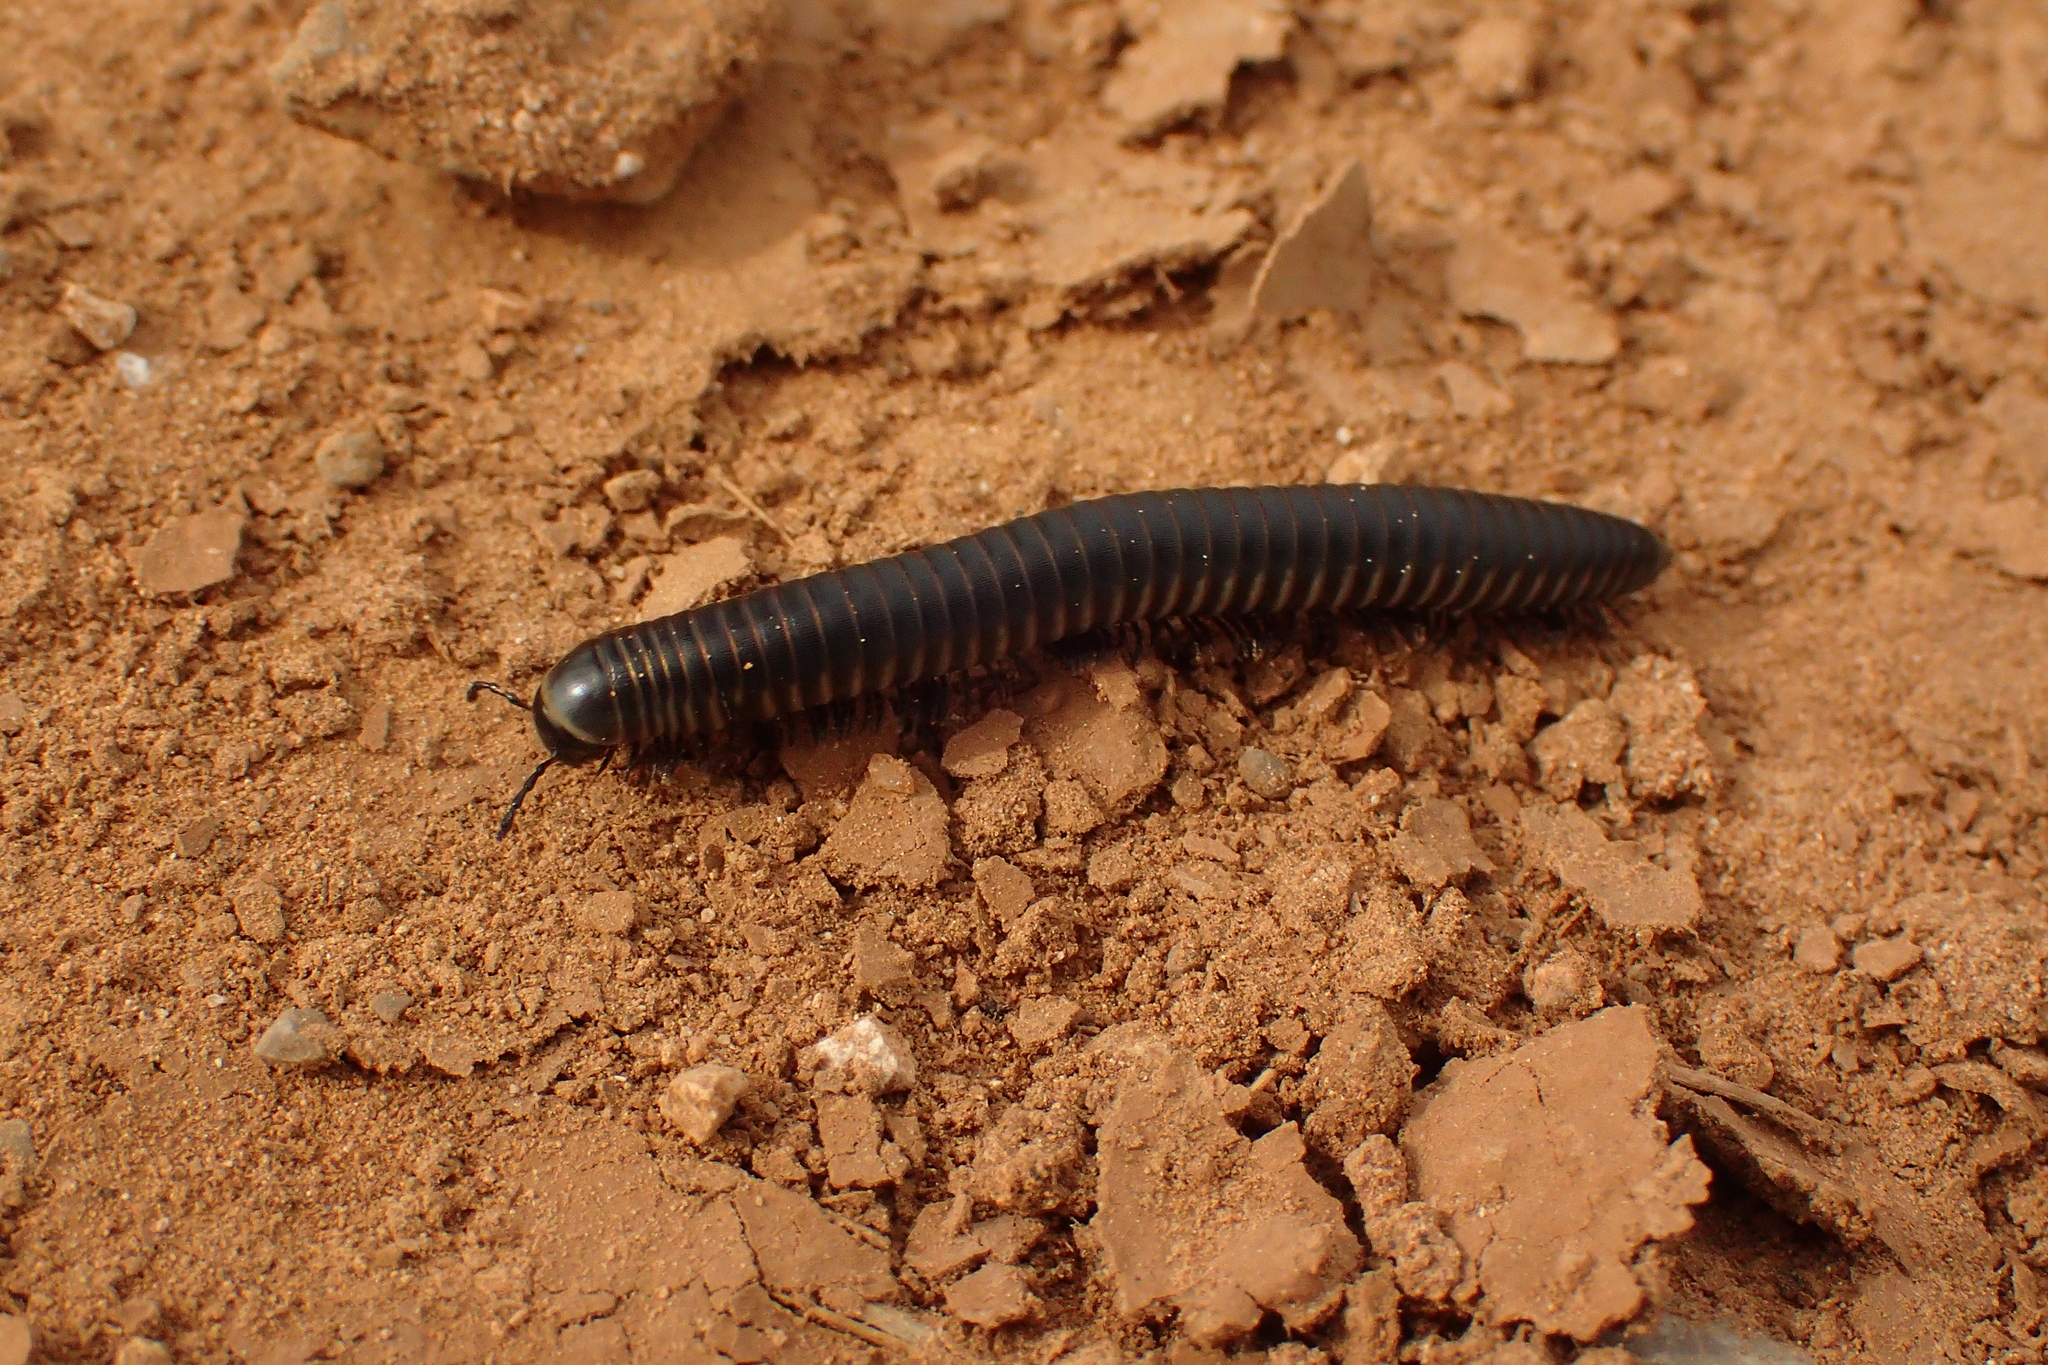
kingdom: Animalia
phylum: Arthropoda
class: Diplopoda
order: Julida
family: Julidae
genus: Ommatoiulus
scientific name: Ommatoiulus rutilans
